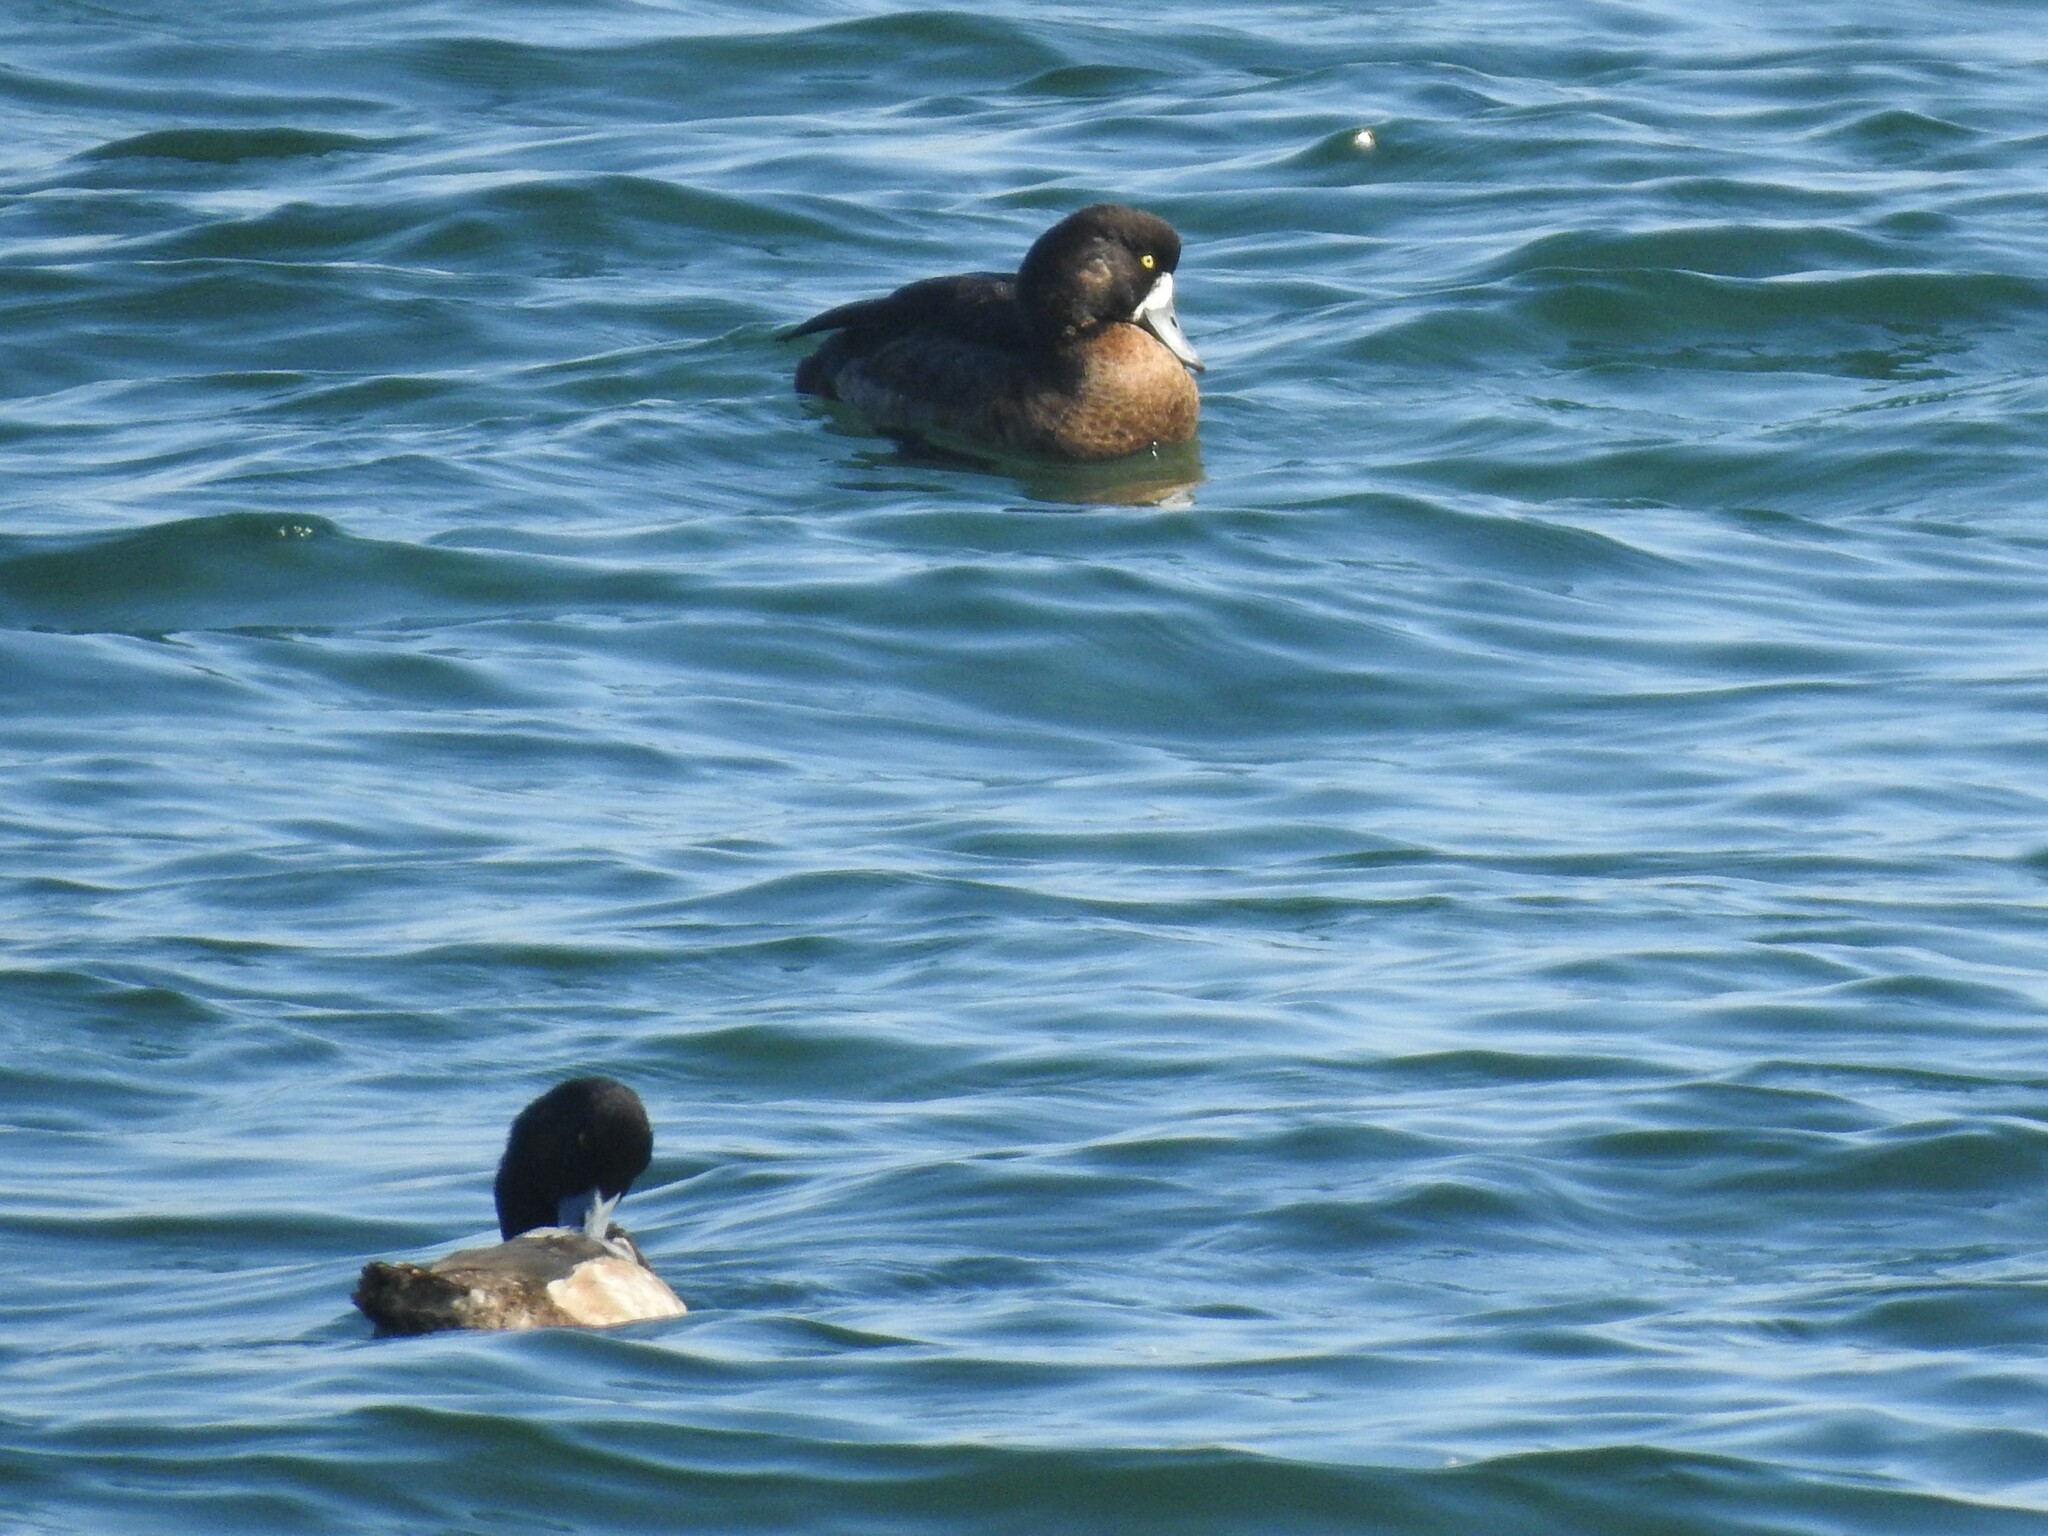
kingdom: Animalia
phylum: Chordata
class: Aves
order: Anseriformes
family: Anatidae
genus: Aythya
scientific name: Aythya marila
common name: Greater scaup
